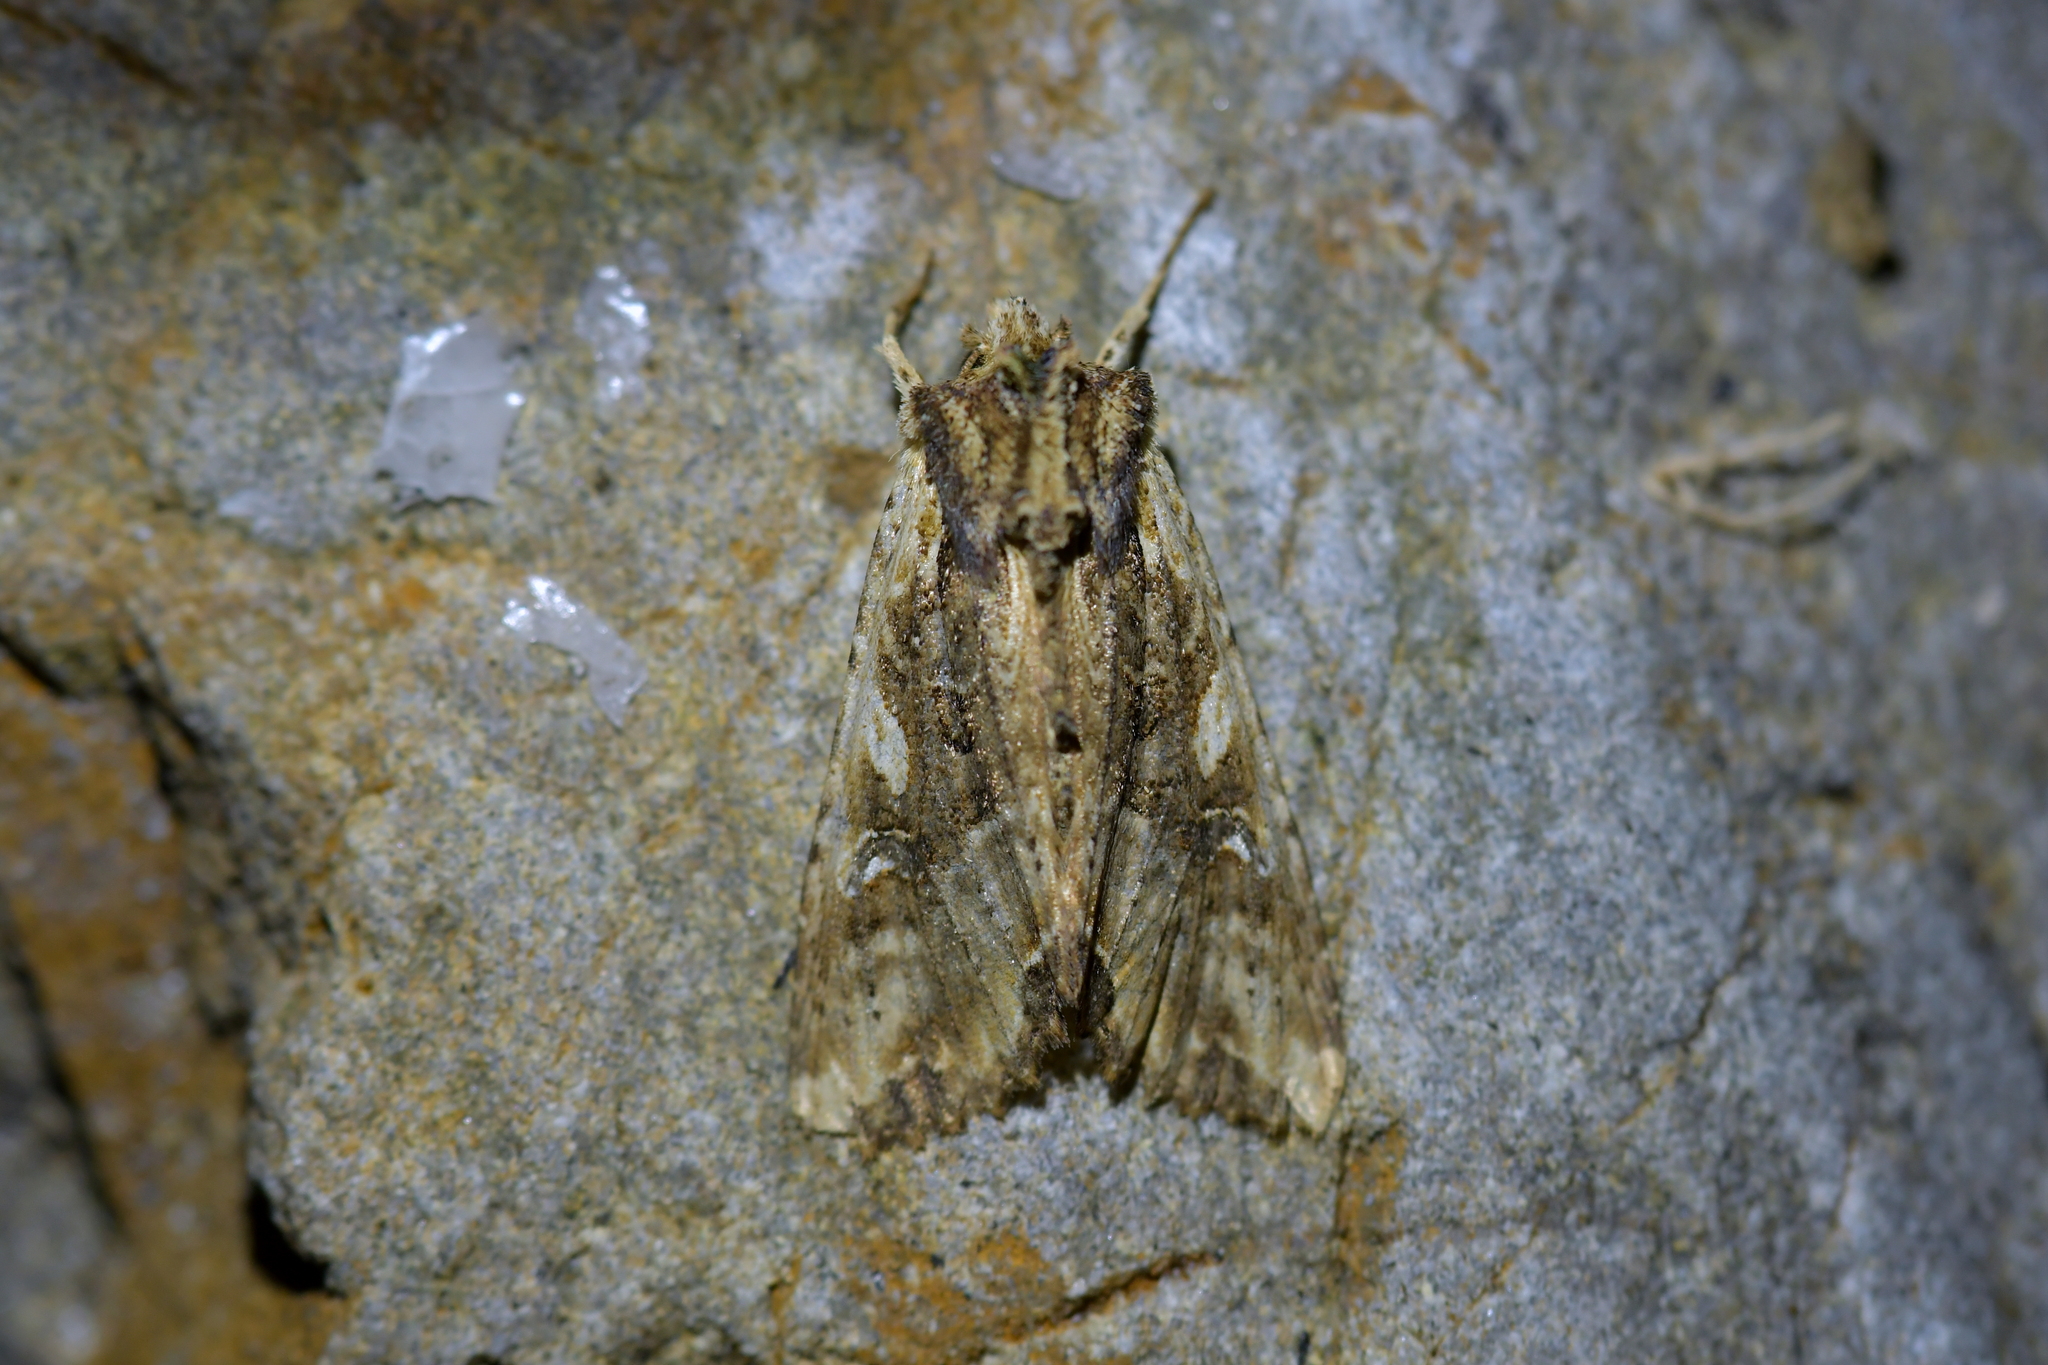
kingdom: Animalia
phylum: Arthropoda
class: Insecta
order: Lepidoptera
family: Noctuidae
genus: Meterana
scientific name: Meterana stipata
